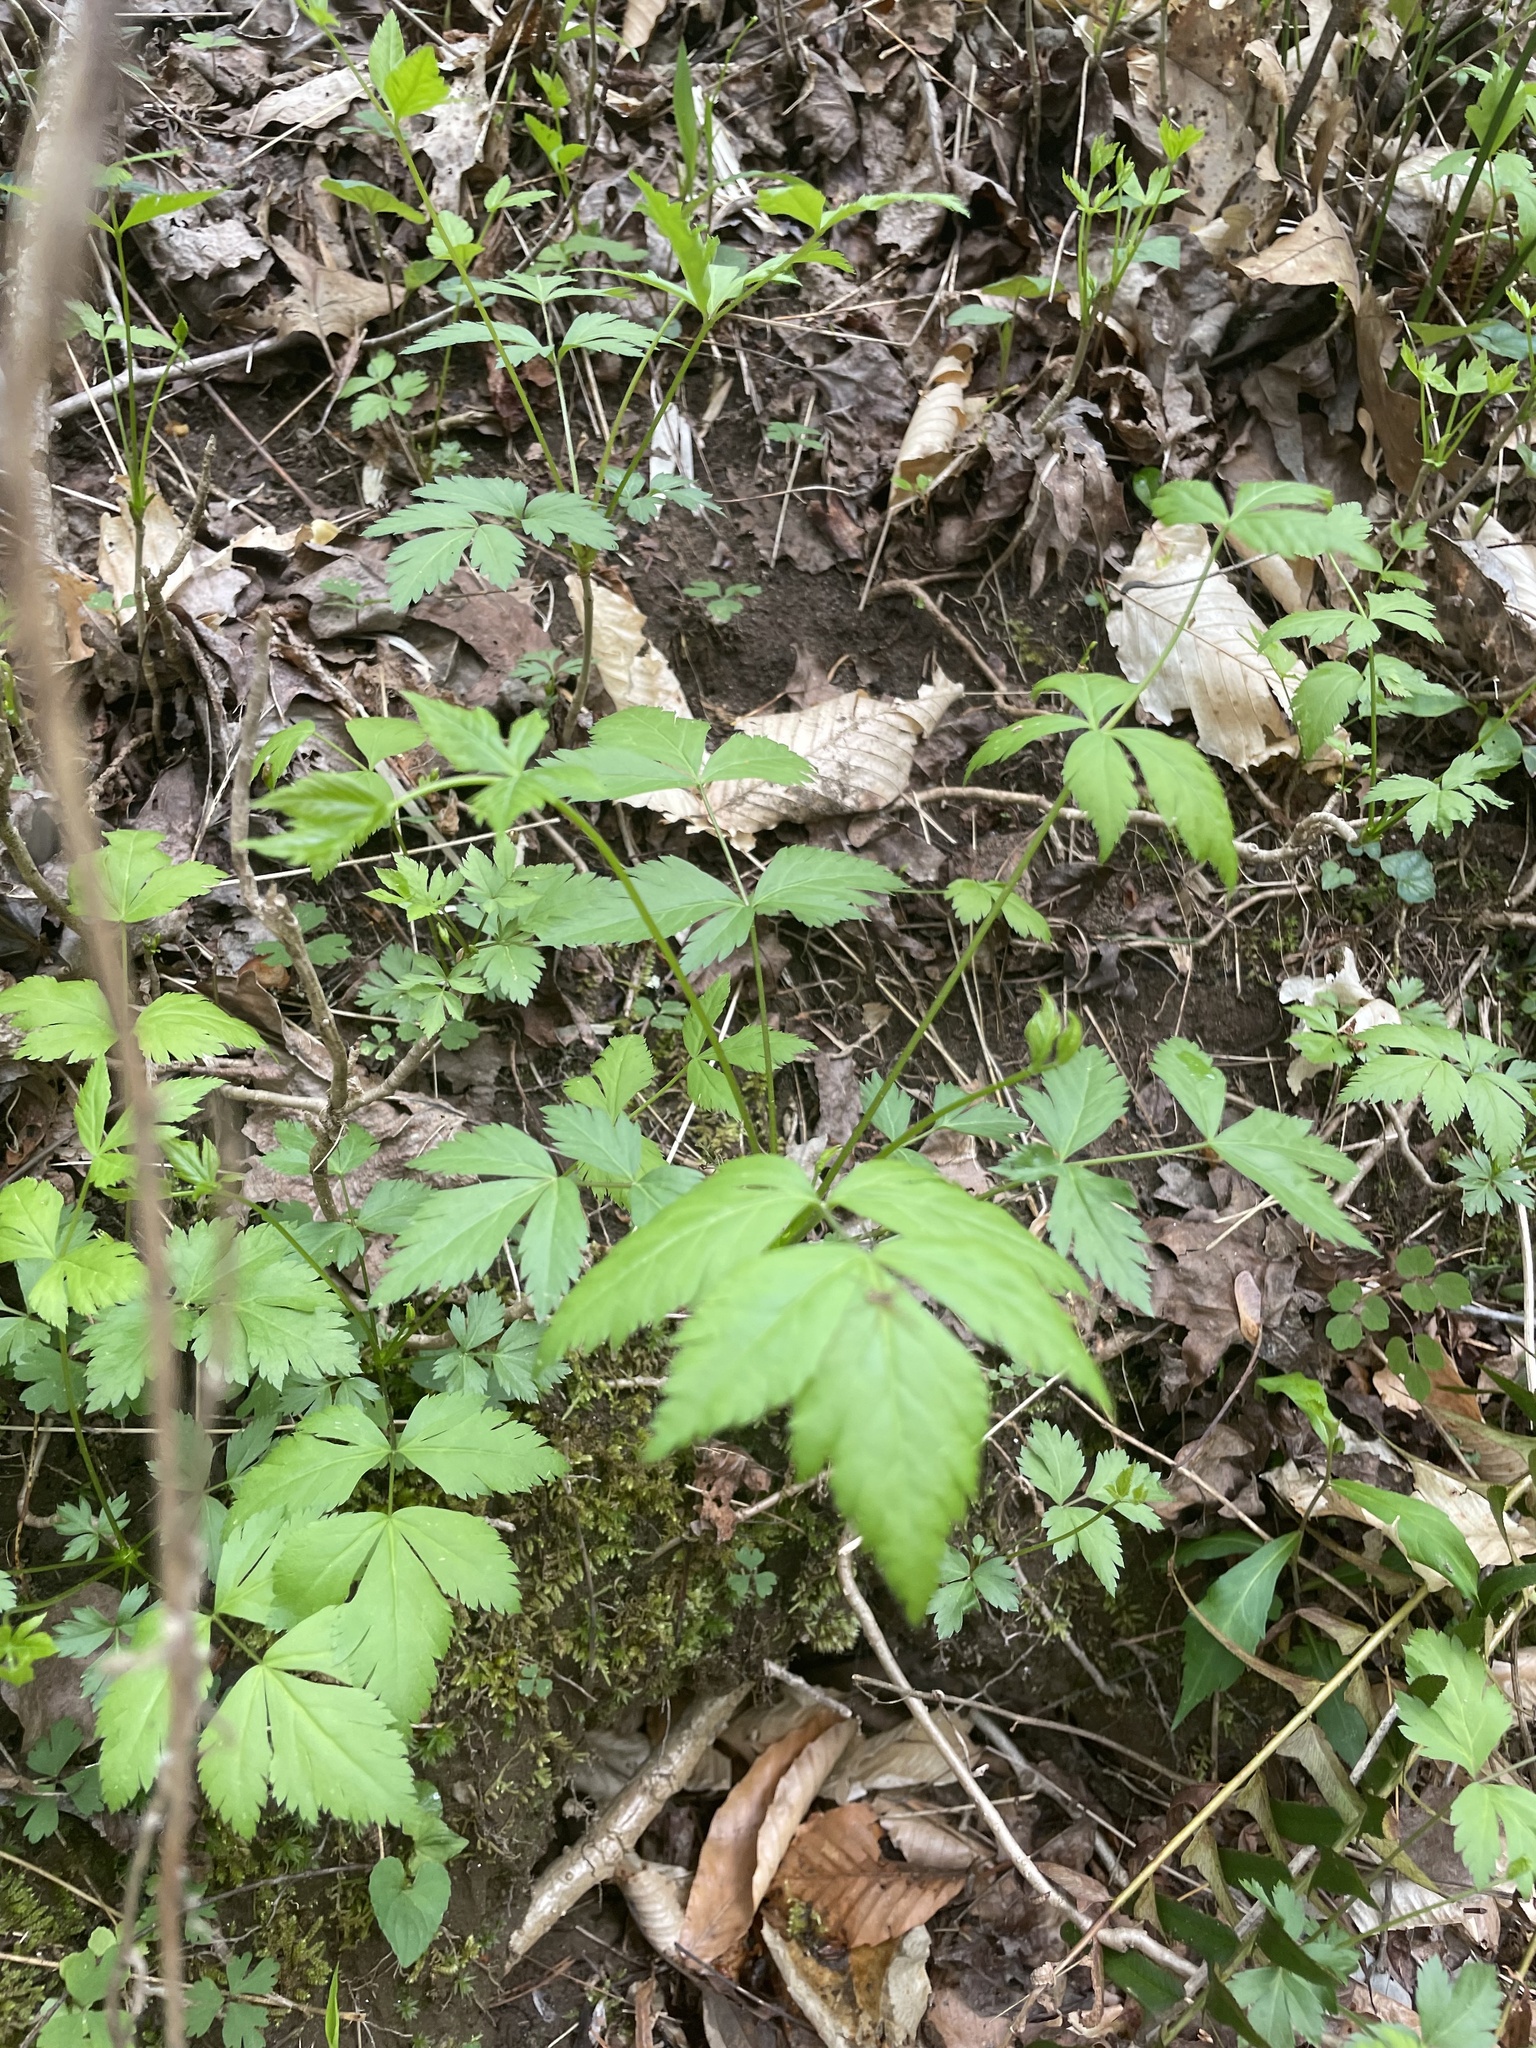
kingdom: Plantae
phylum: Tracheophyta
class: Magnoliopsida
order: Ranunculales
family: Ranunculaceae
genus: Xanthorhiza
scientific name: Xanthorhiza simplicissima
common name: Yellowroot
